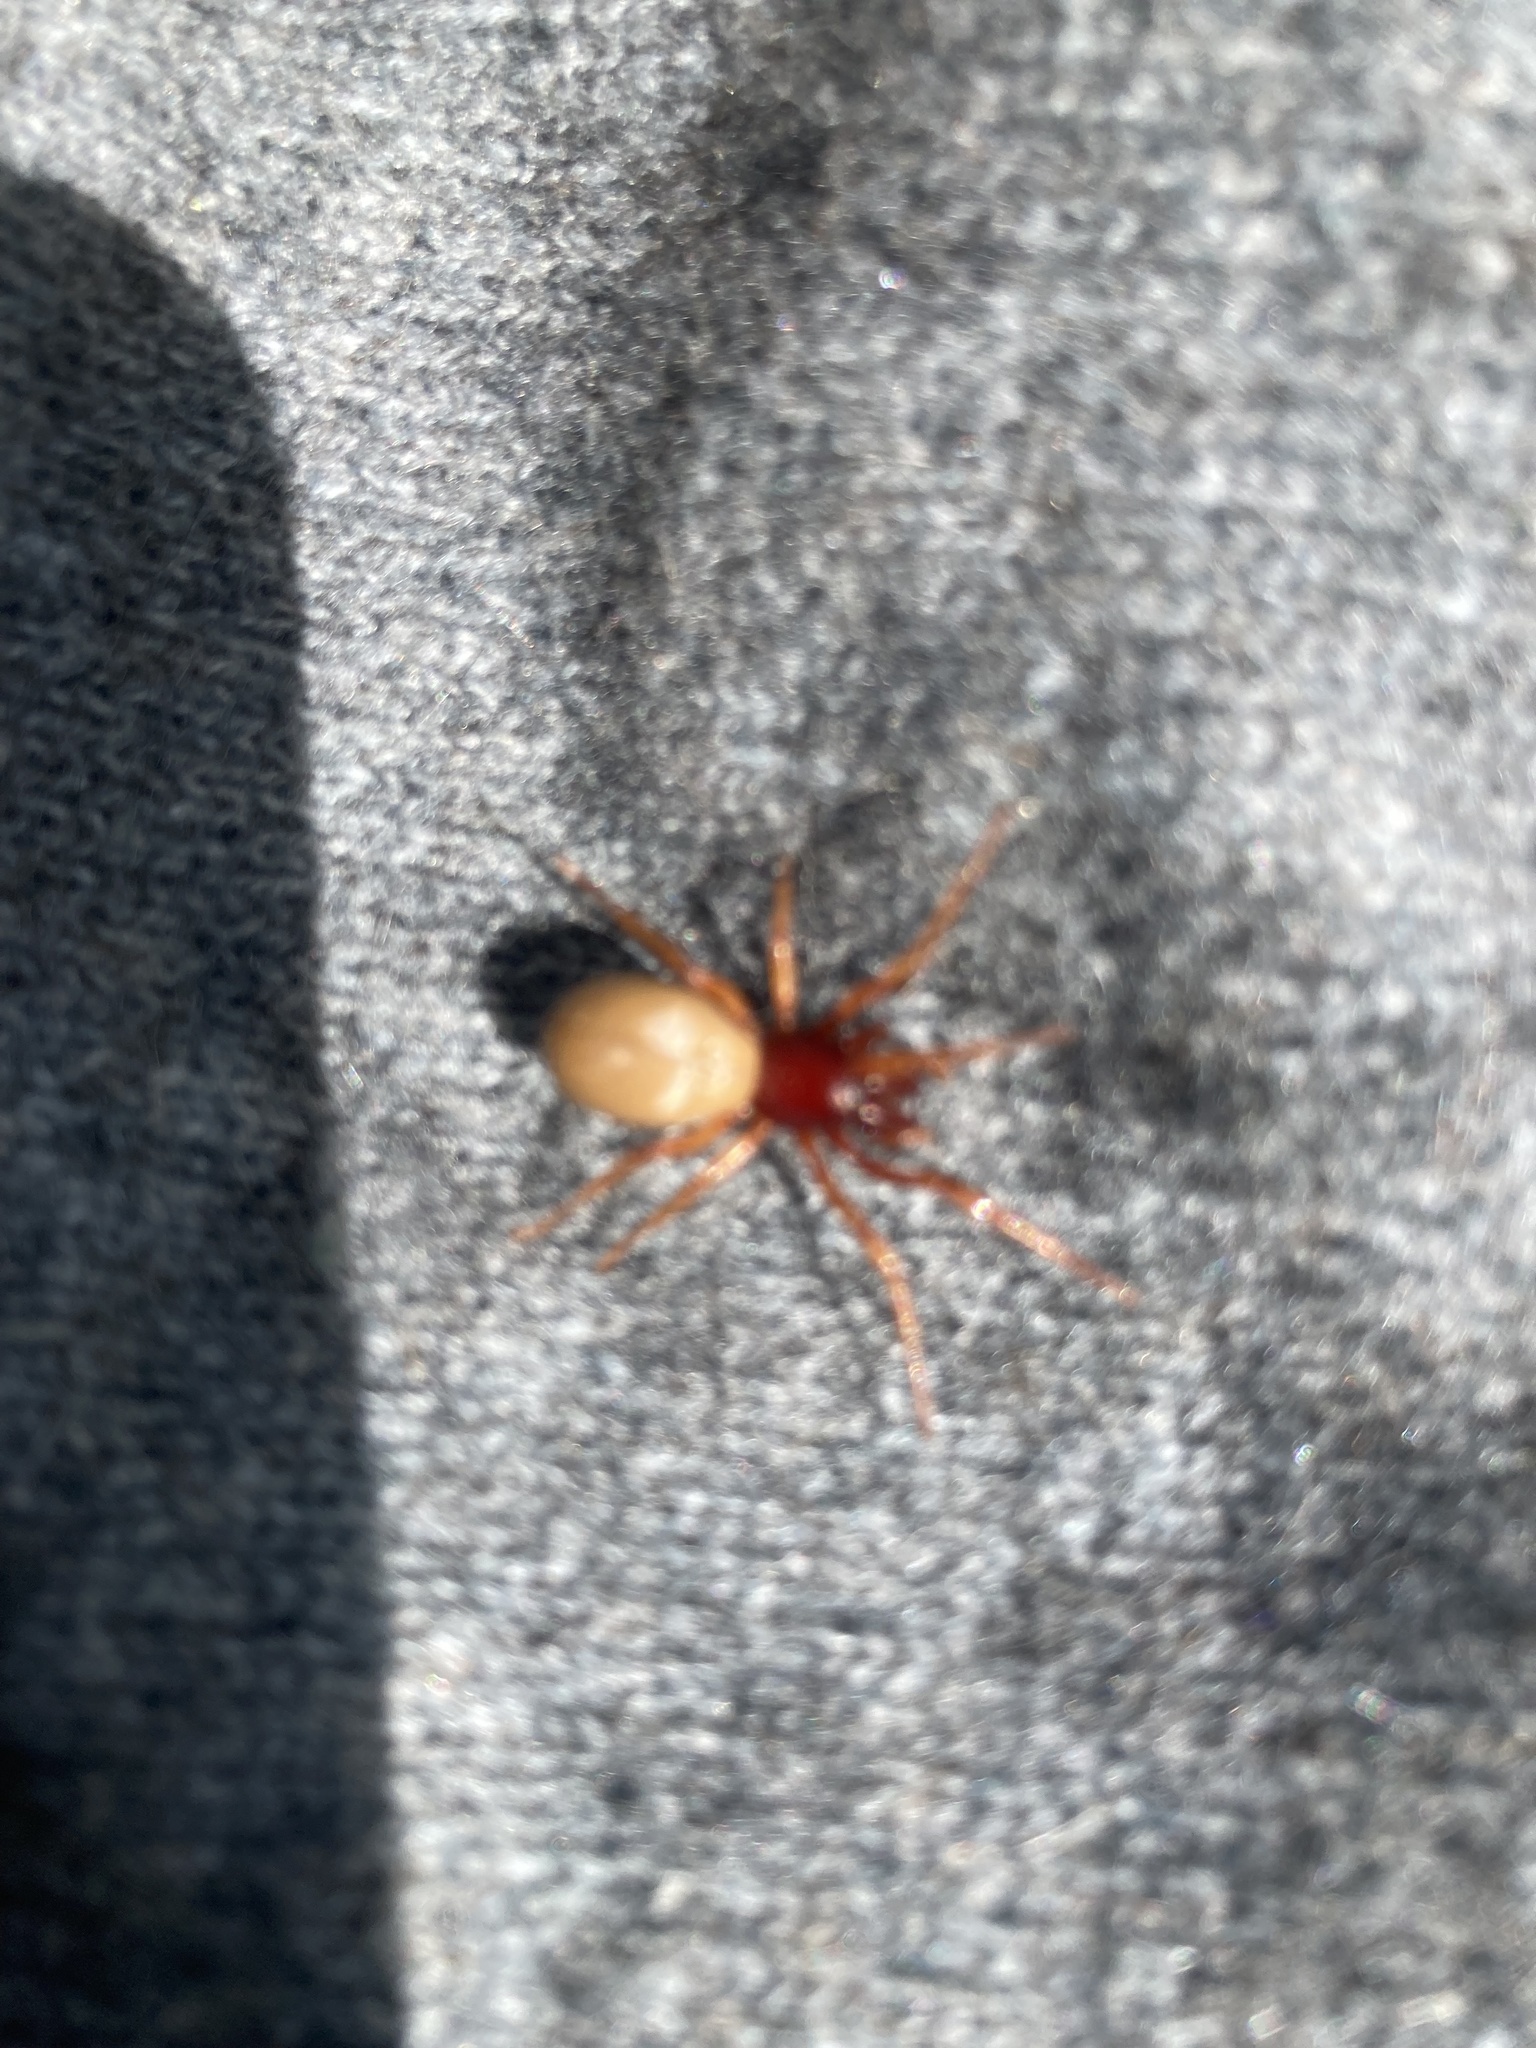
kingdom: Animalia
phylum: Arthropoda
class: Arachnida
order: Araneae
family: Dysderidae
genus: Dysdera
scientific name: Dysdera crocata
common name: Woodlouse spider
